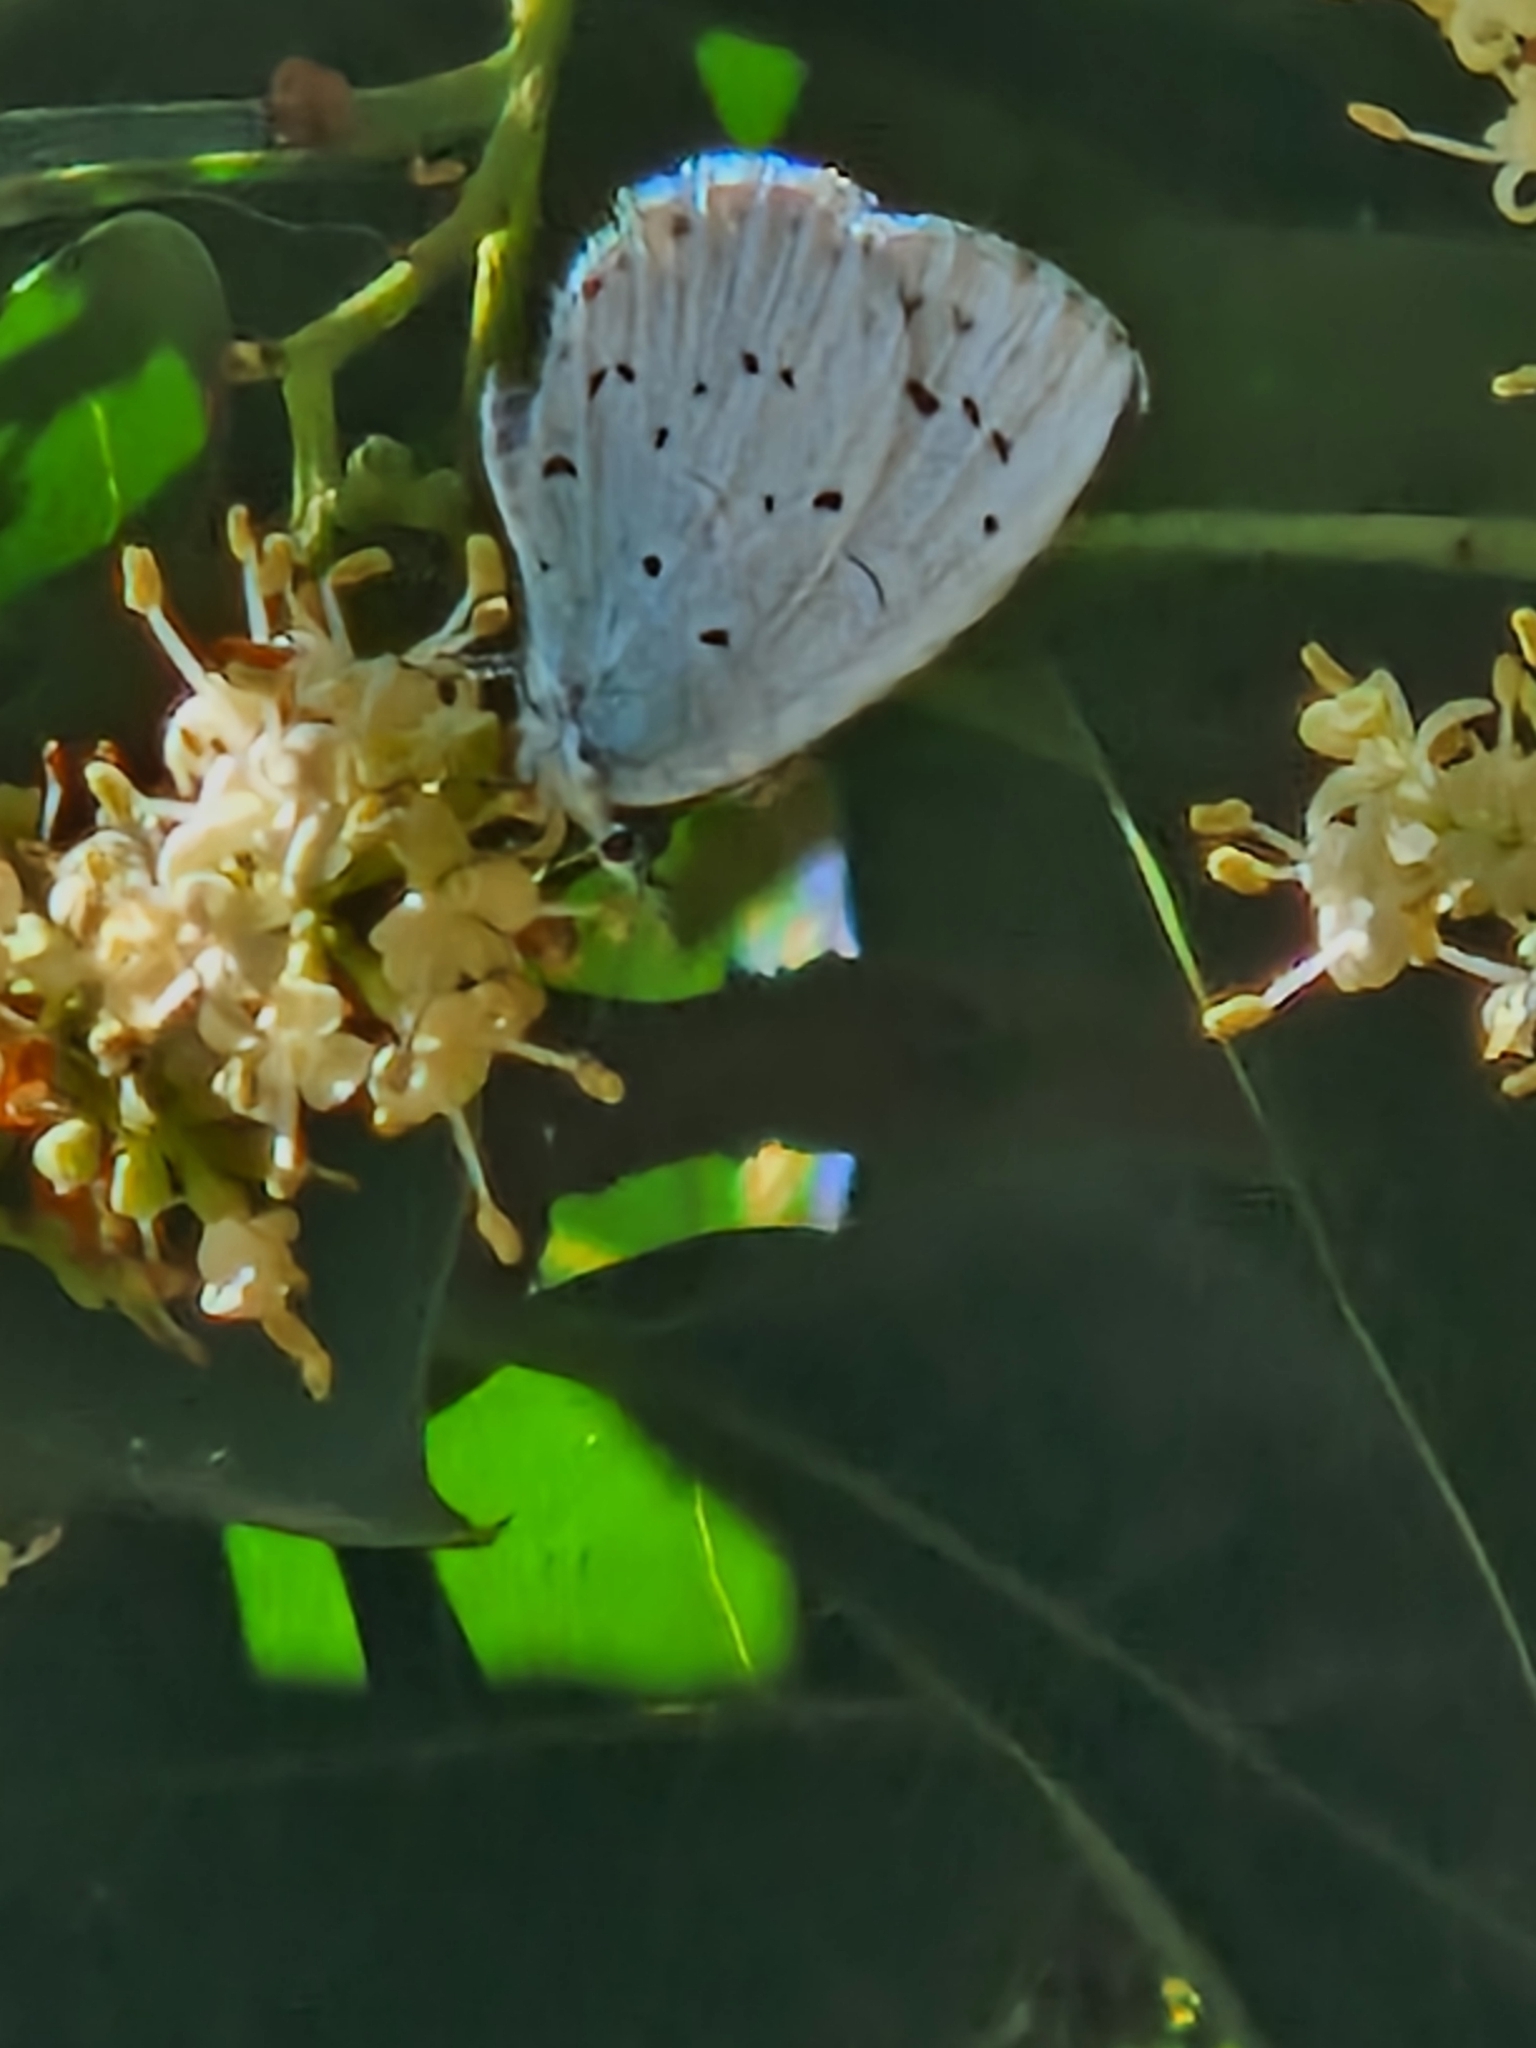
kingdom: Animalia
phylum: Arthropoda
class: Insecta
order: Lepidoptera
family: Lycaenidae
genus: Celastrina
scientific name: Celastrina argiolus
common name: Holly blue
